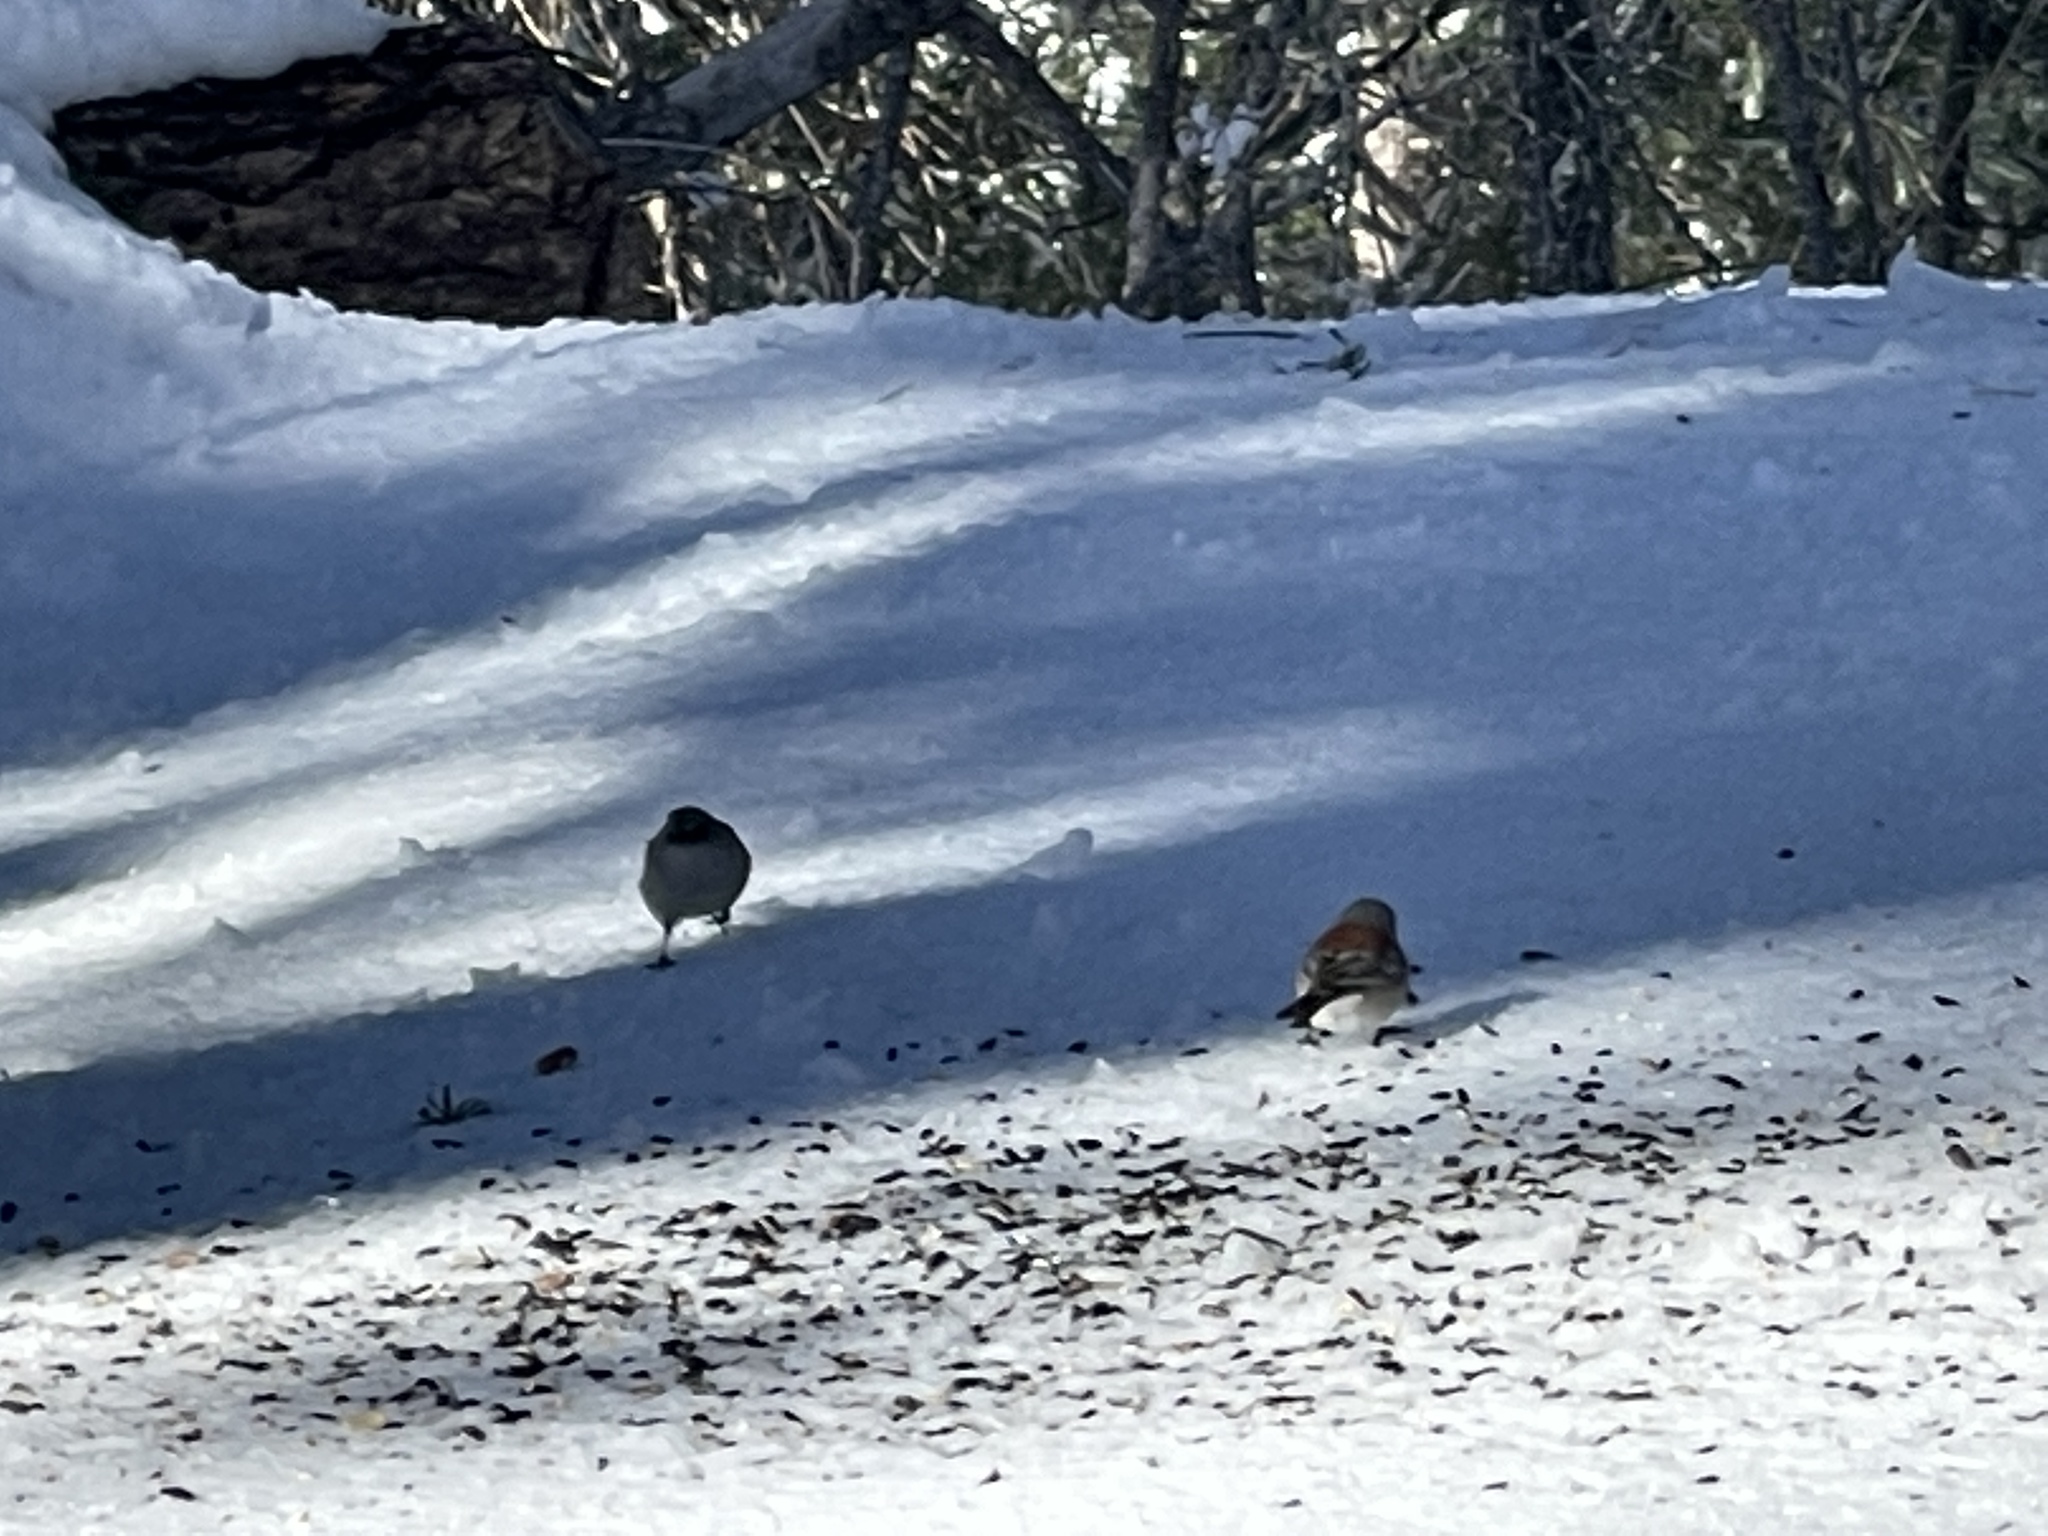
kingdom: Animalia
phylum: Chordata
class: Aves
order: Passeriformes
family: Passerellidae
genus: Junco
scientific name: Junco hyemalis
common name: Dark-eyed junco
